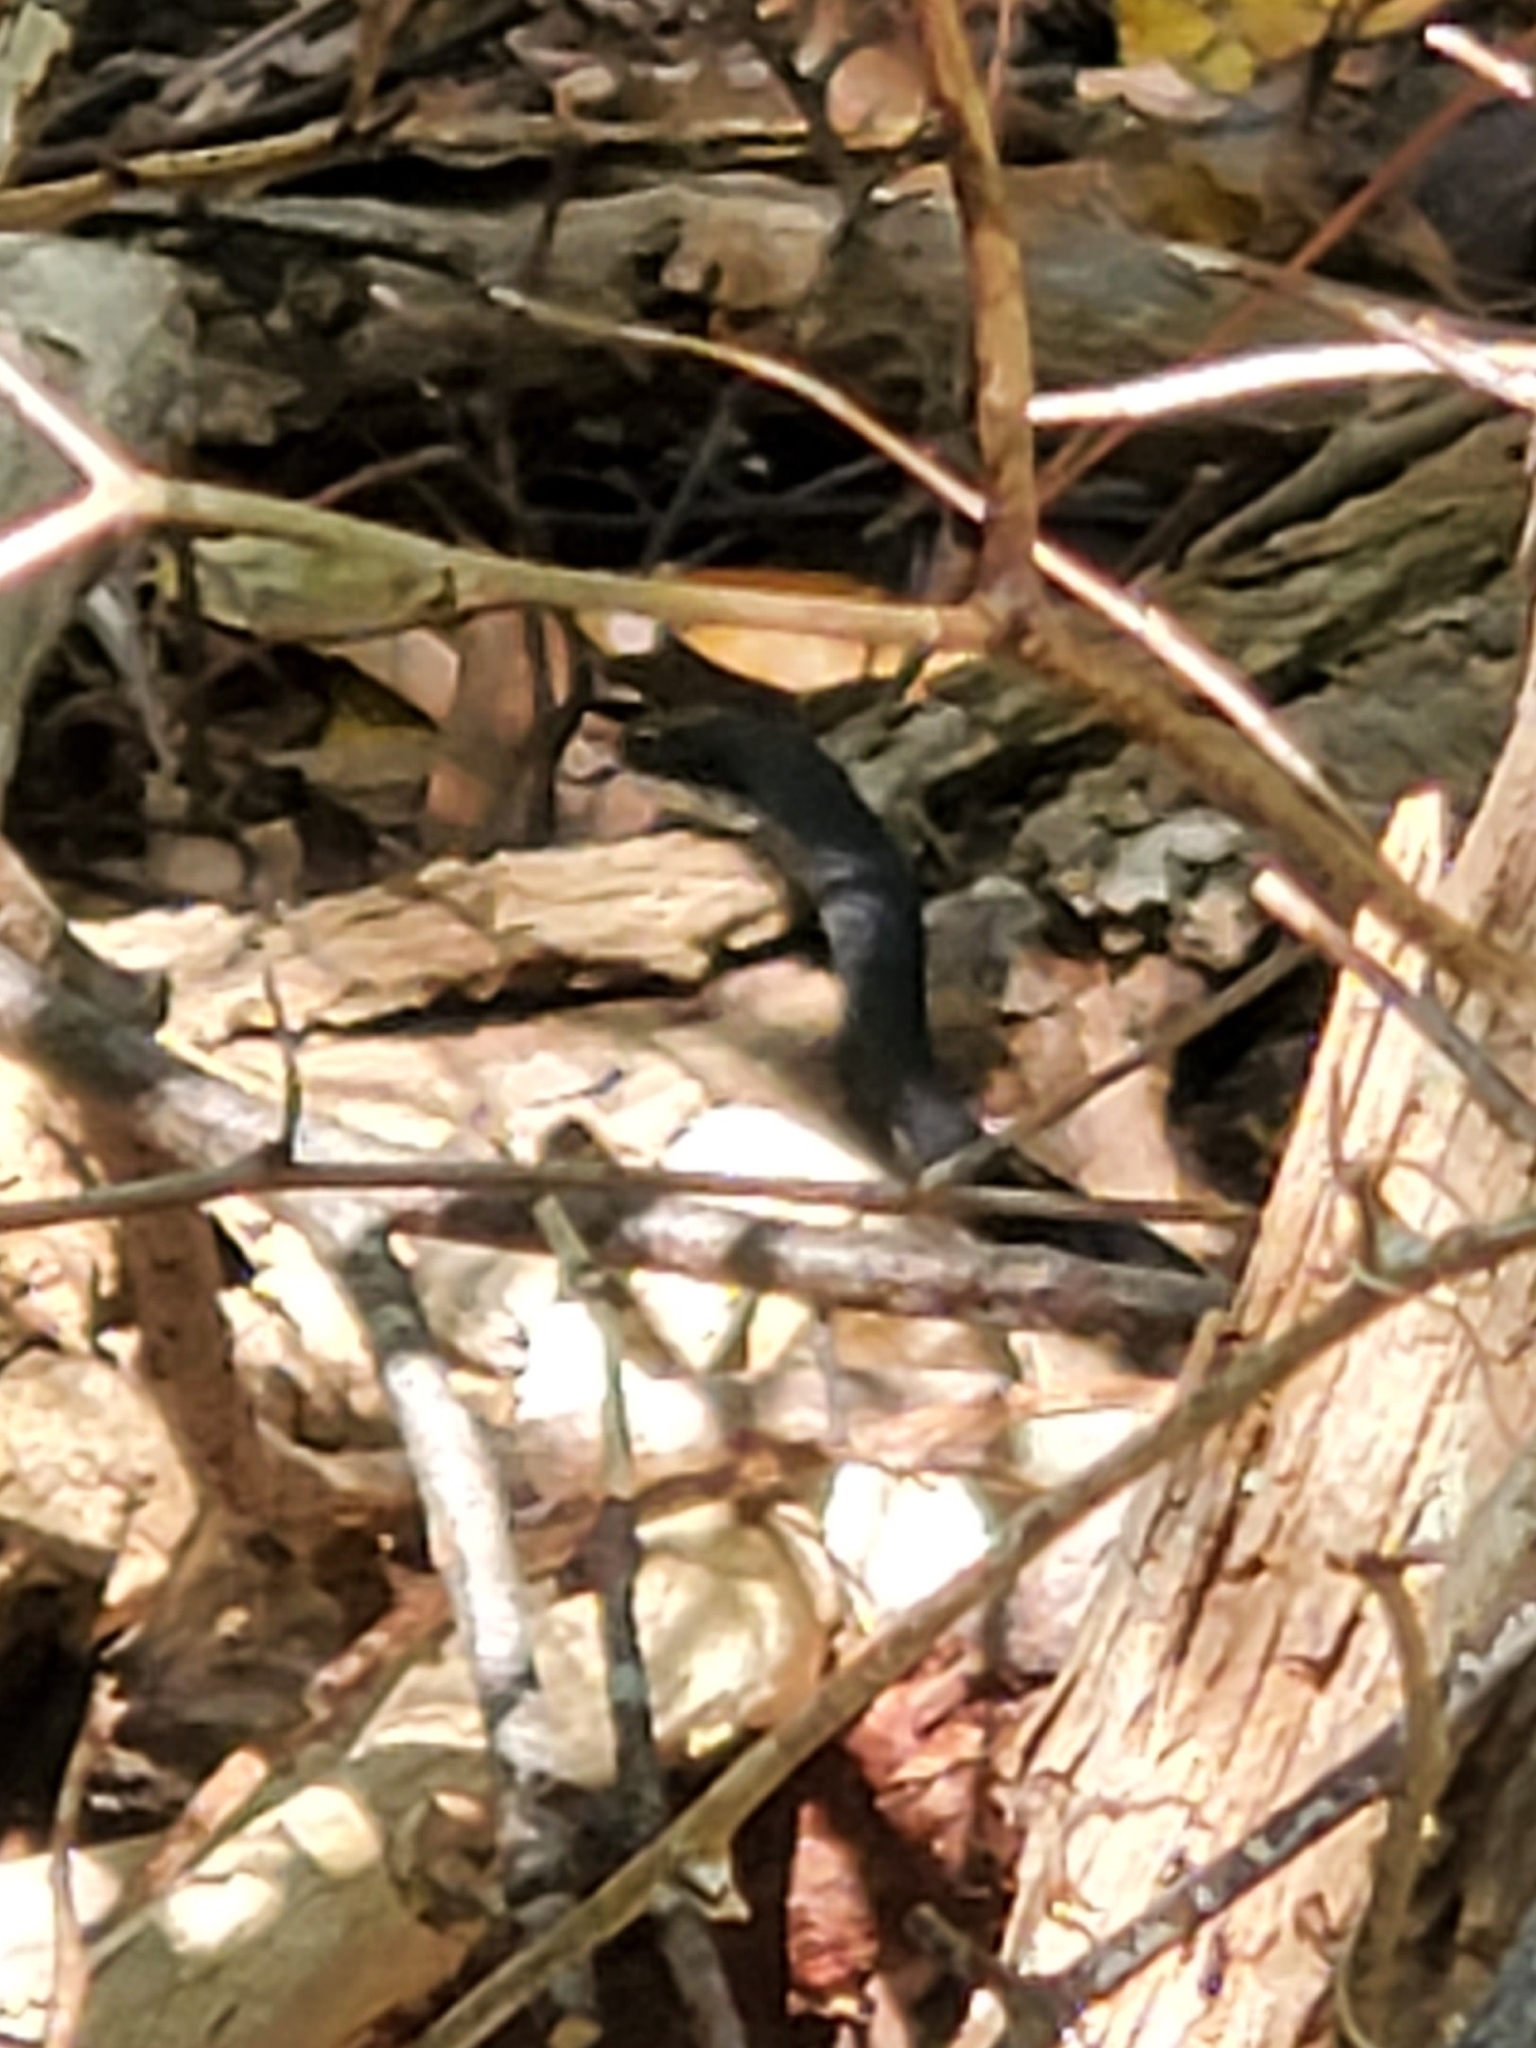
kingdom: Animalia
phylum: Chordata
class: Squamata
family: Colubridae
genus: Coluber
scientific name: Coluber constrictor
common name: Eastern racer
